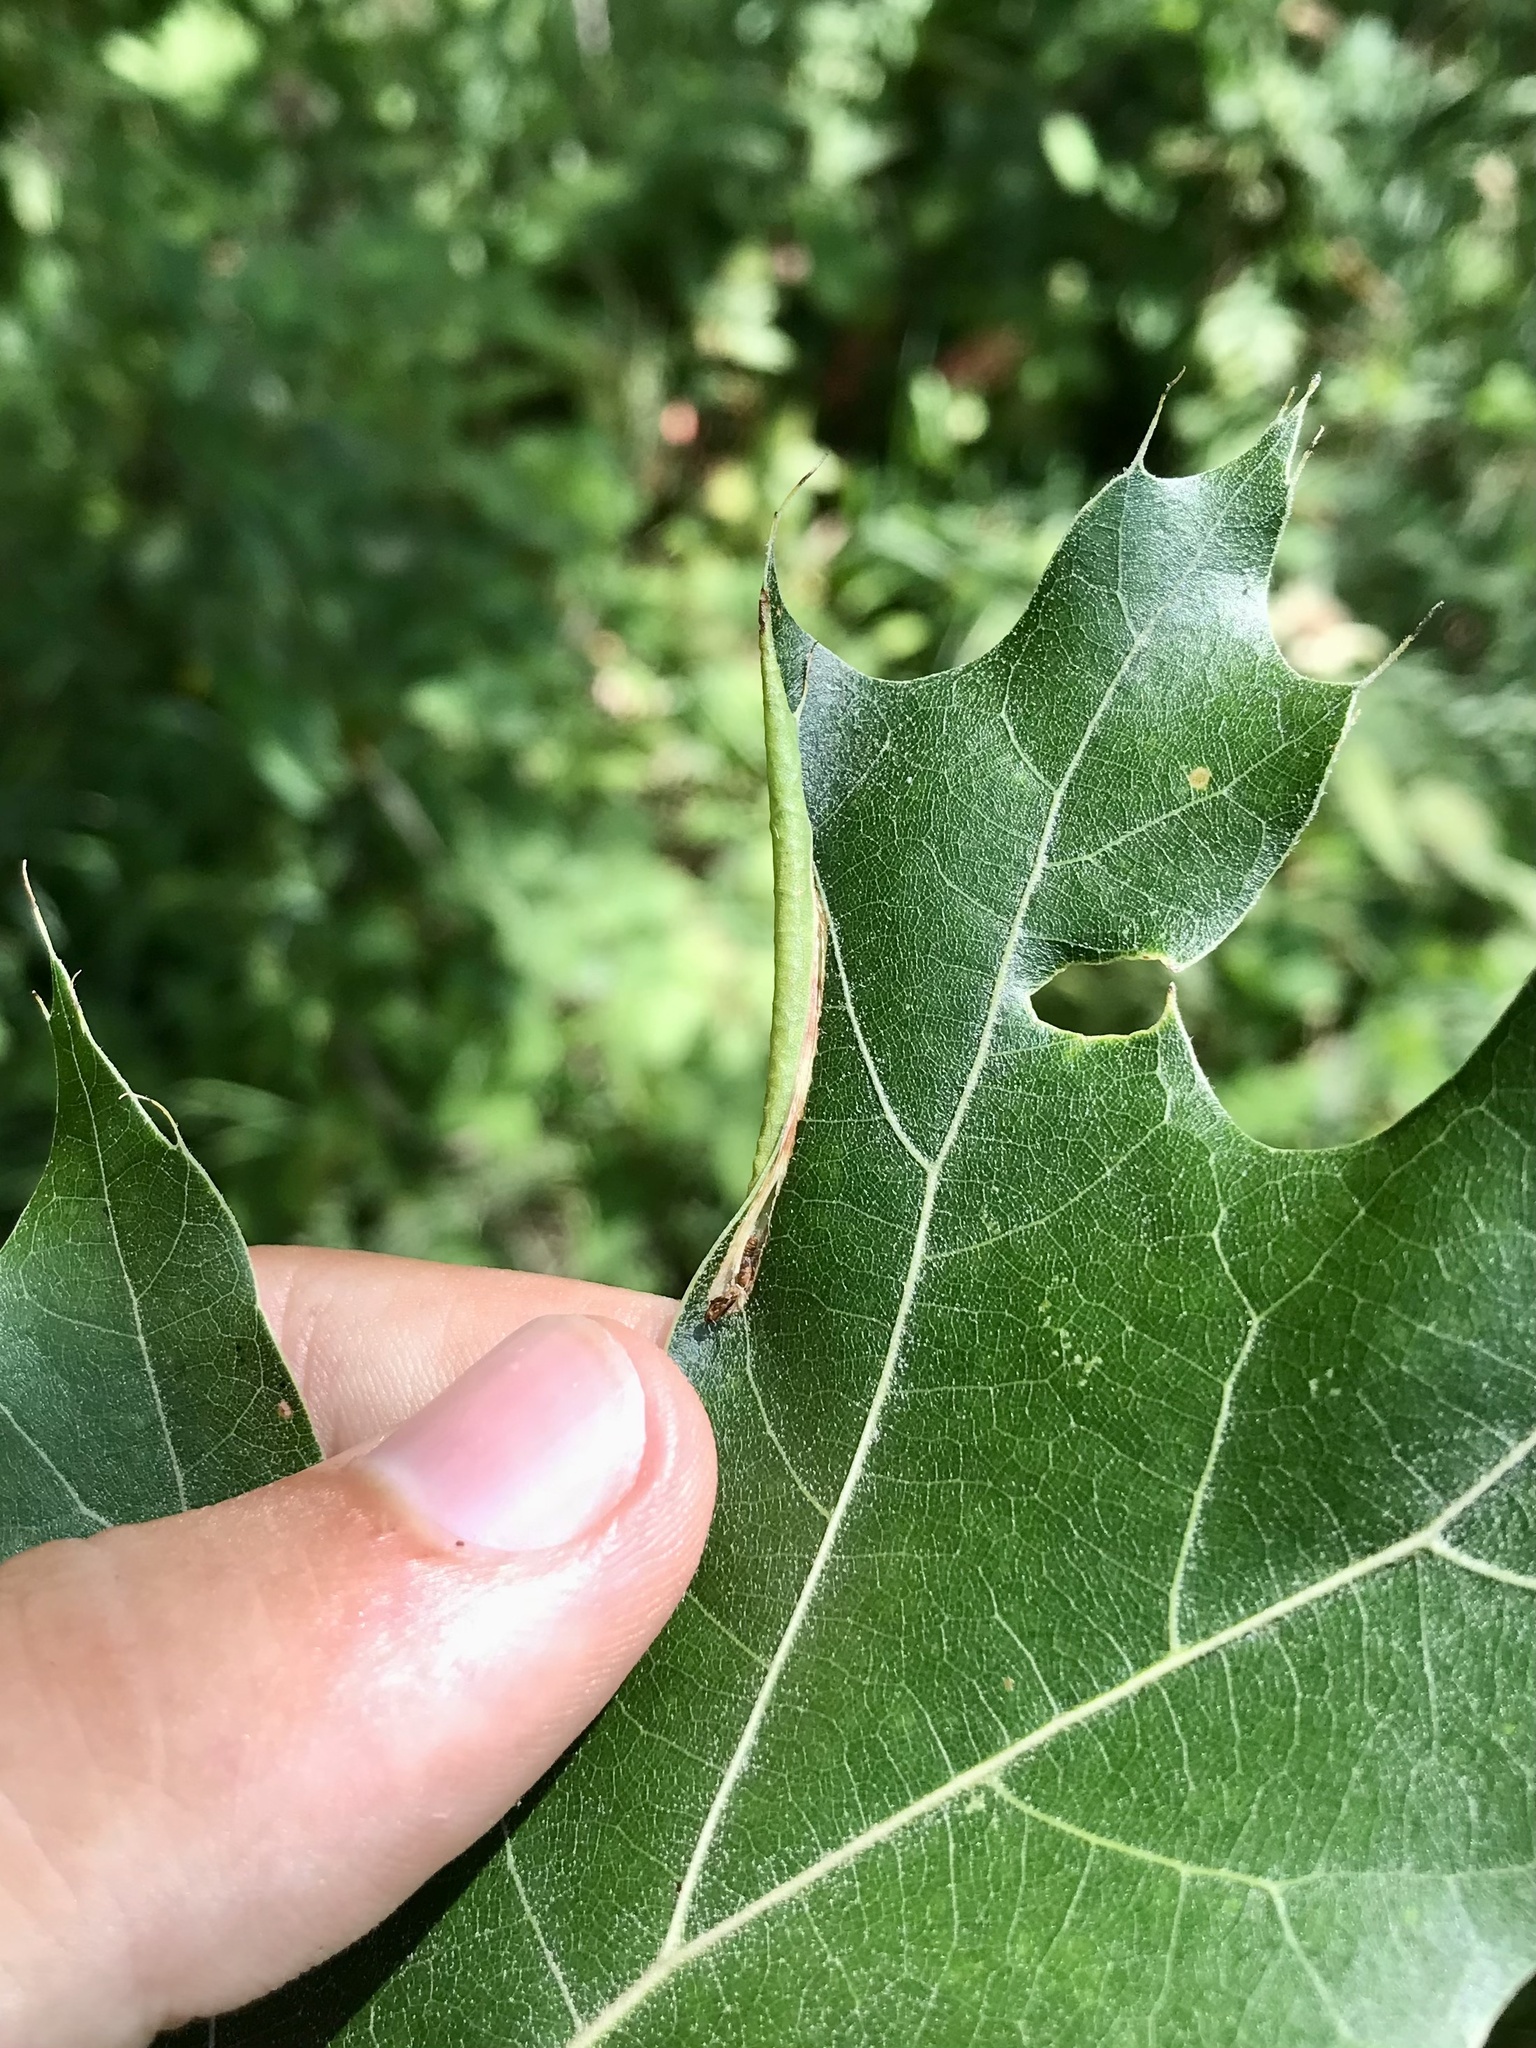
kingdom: Animalia
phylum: Arthropoda
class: Insecta
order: Lepidoptera
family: Tischeriidae
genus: Coptotriche
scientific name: Coptotriche citrinipennella
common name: The golden sweeper
